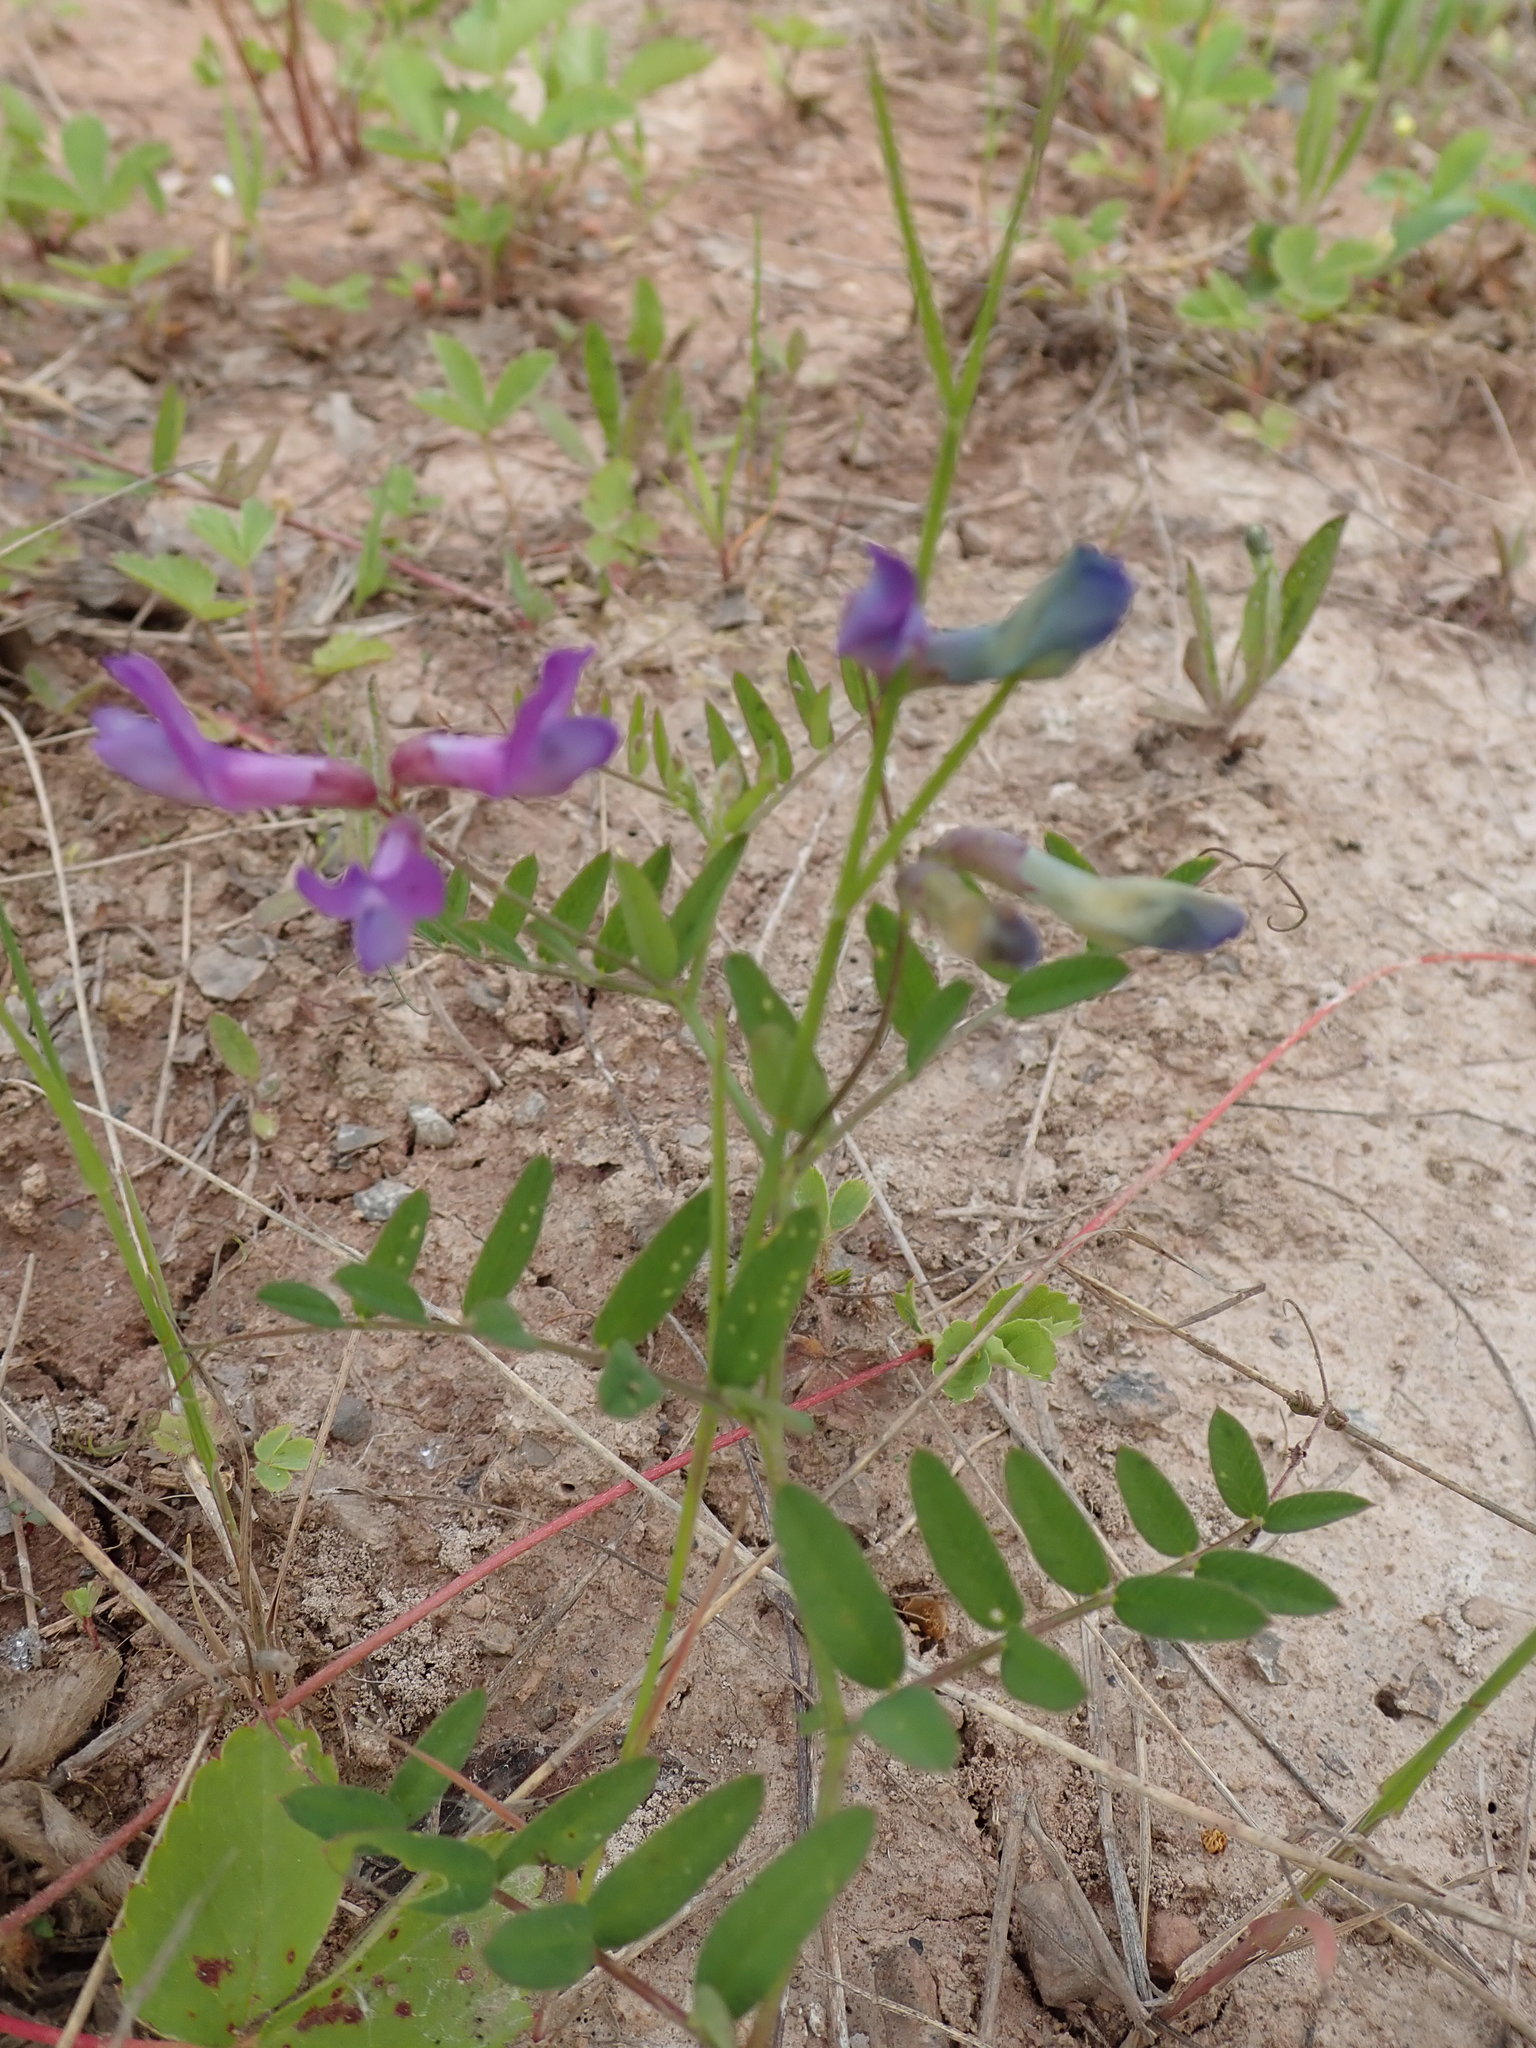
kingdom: Plantae
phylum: Tracheophyta
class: Magnoliopsida
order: Fabales
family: Fabaceae
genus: Vicia
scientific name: Vicia americana
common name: American vetch
